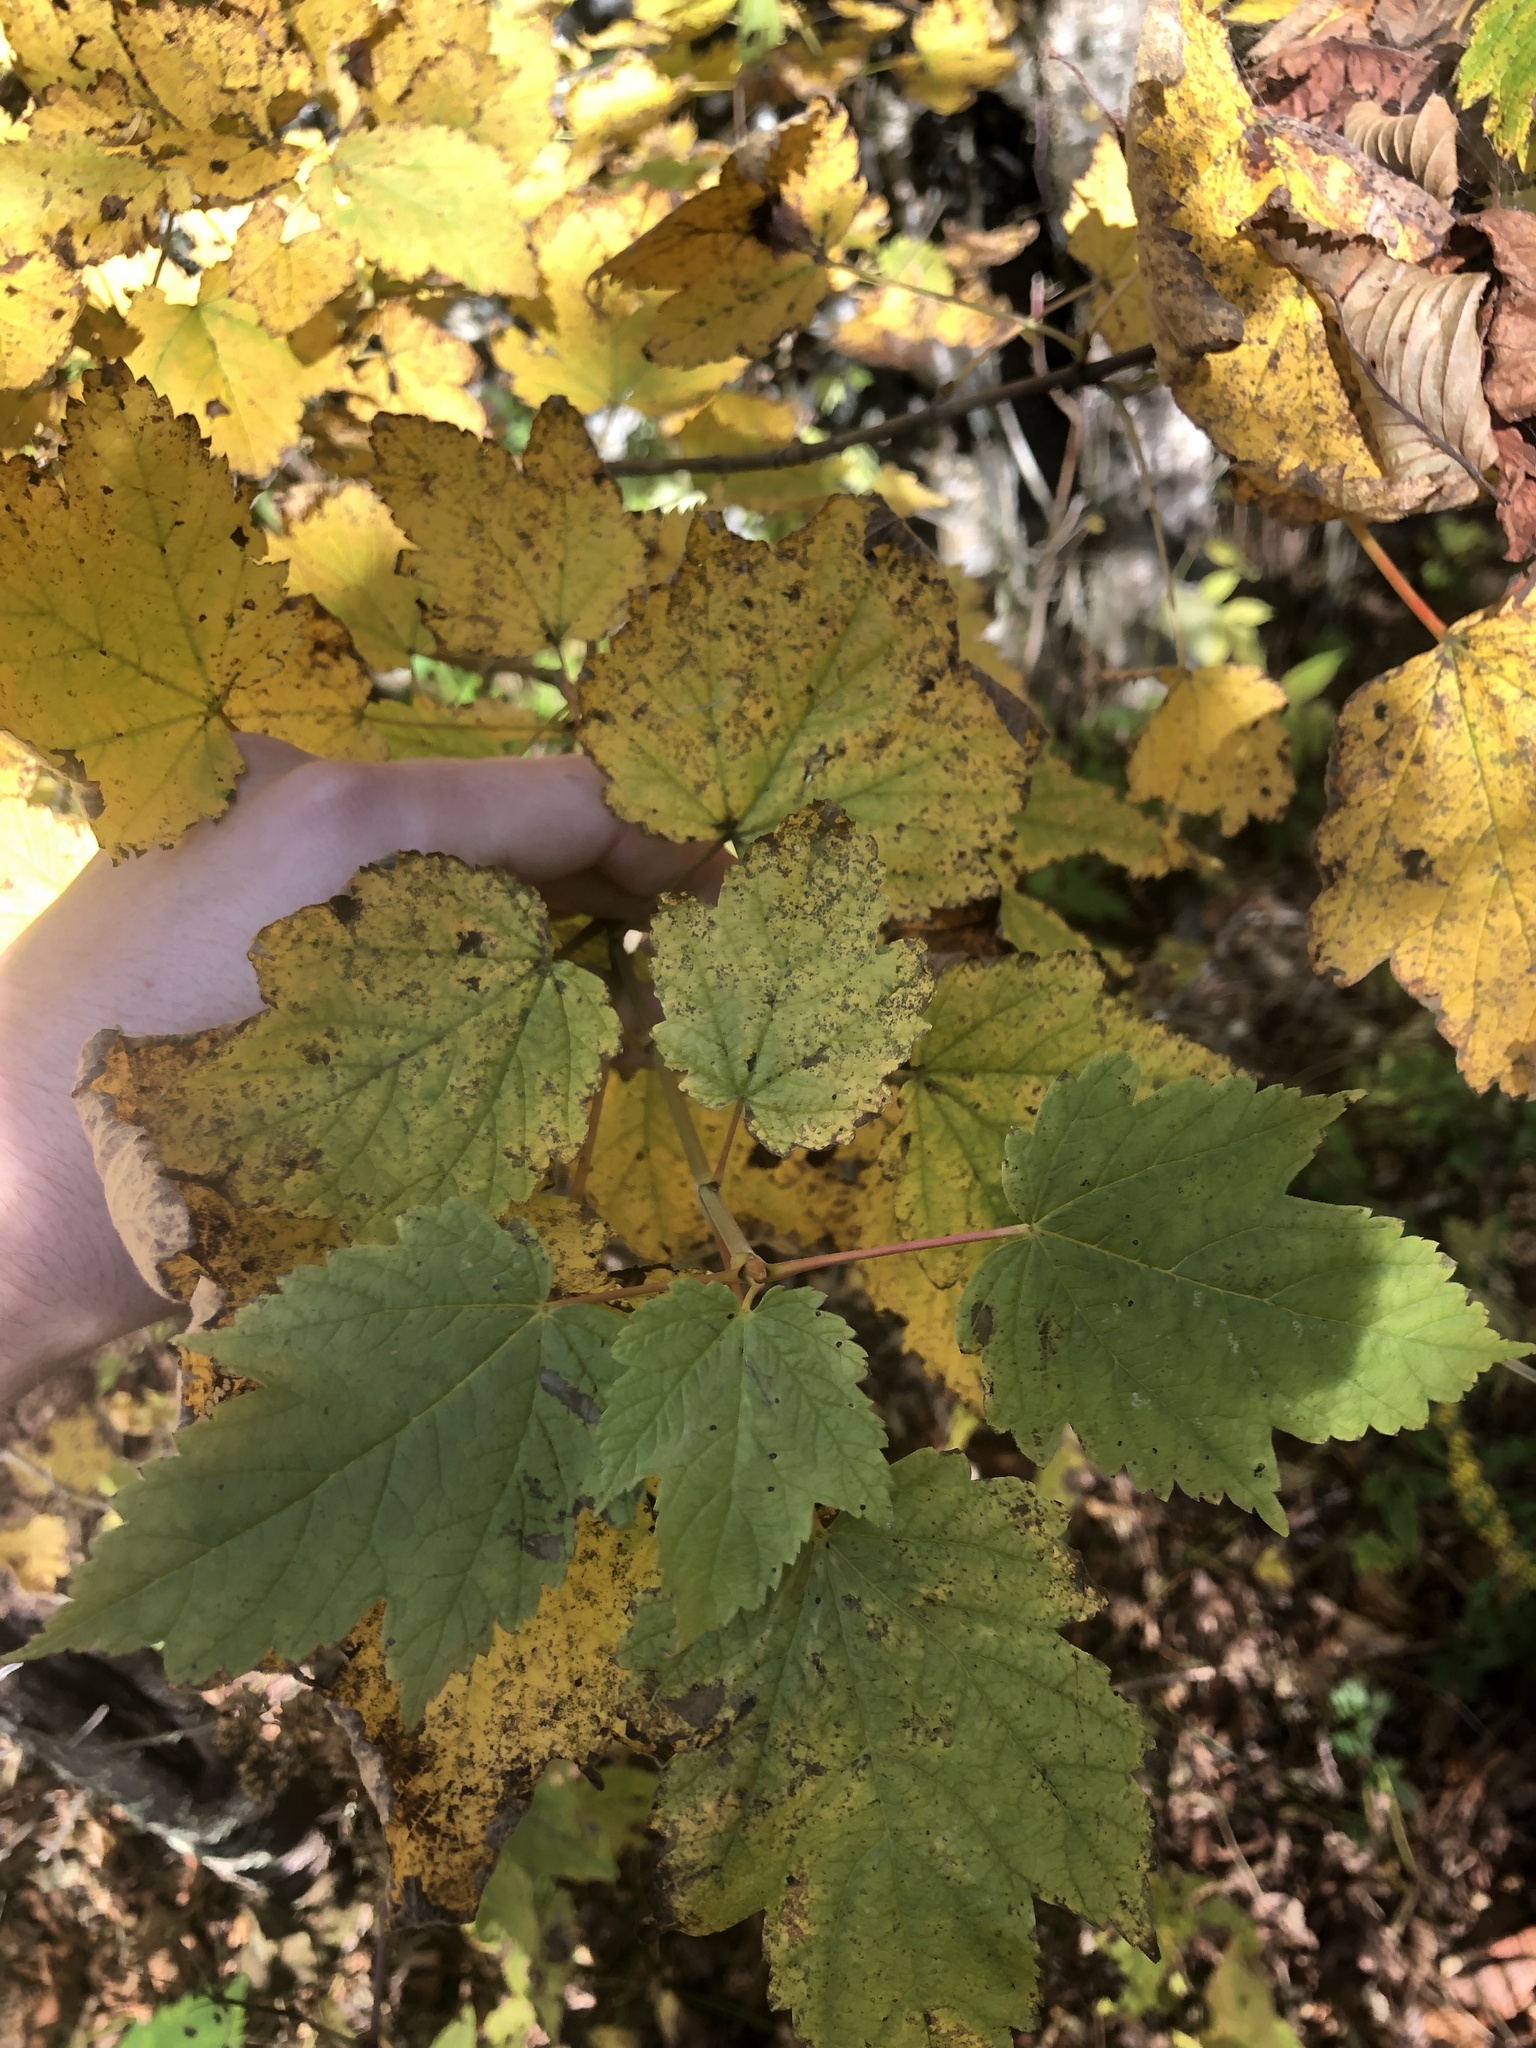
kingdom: Plantae
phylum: Tracheophyta
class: Magnoliopsida
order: Sapindales
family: Sapindaceae
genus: Acer
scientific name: Acer spicatum
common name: Mountain maple
